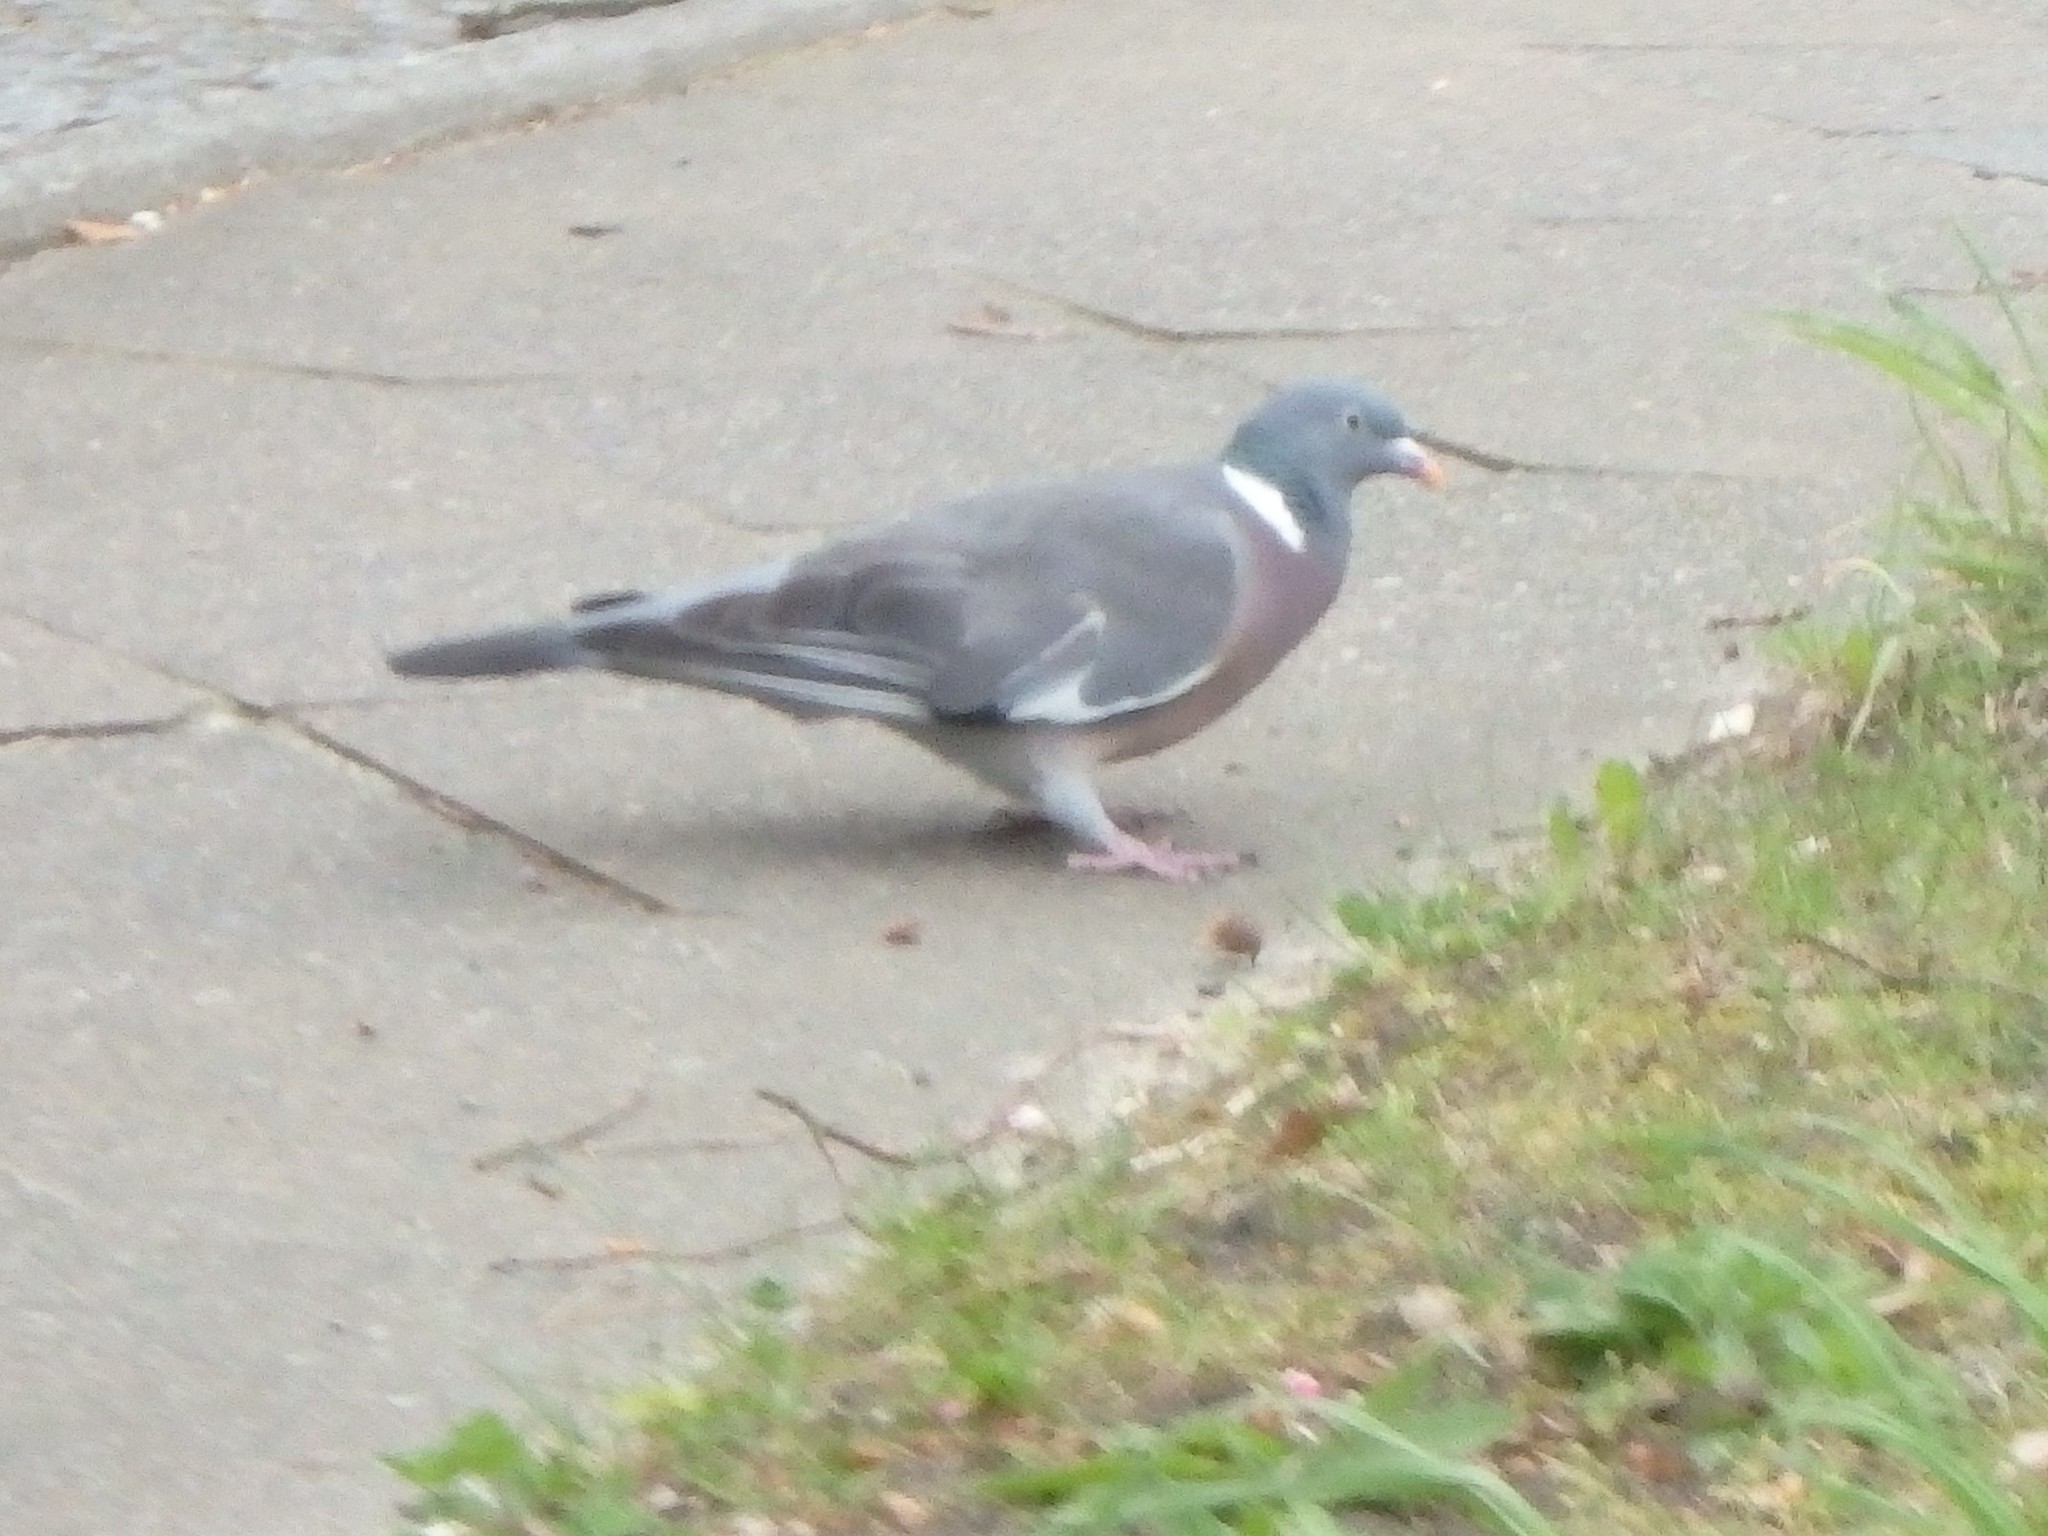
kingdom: Animalia
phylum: Chordata
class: Aves
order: Columbiformes
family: Columbidae
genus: Columba
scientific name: Columba palumbus
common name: Common wood pigeon
